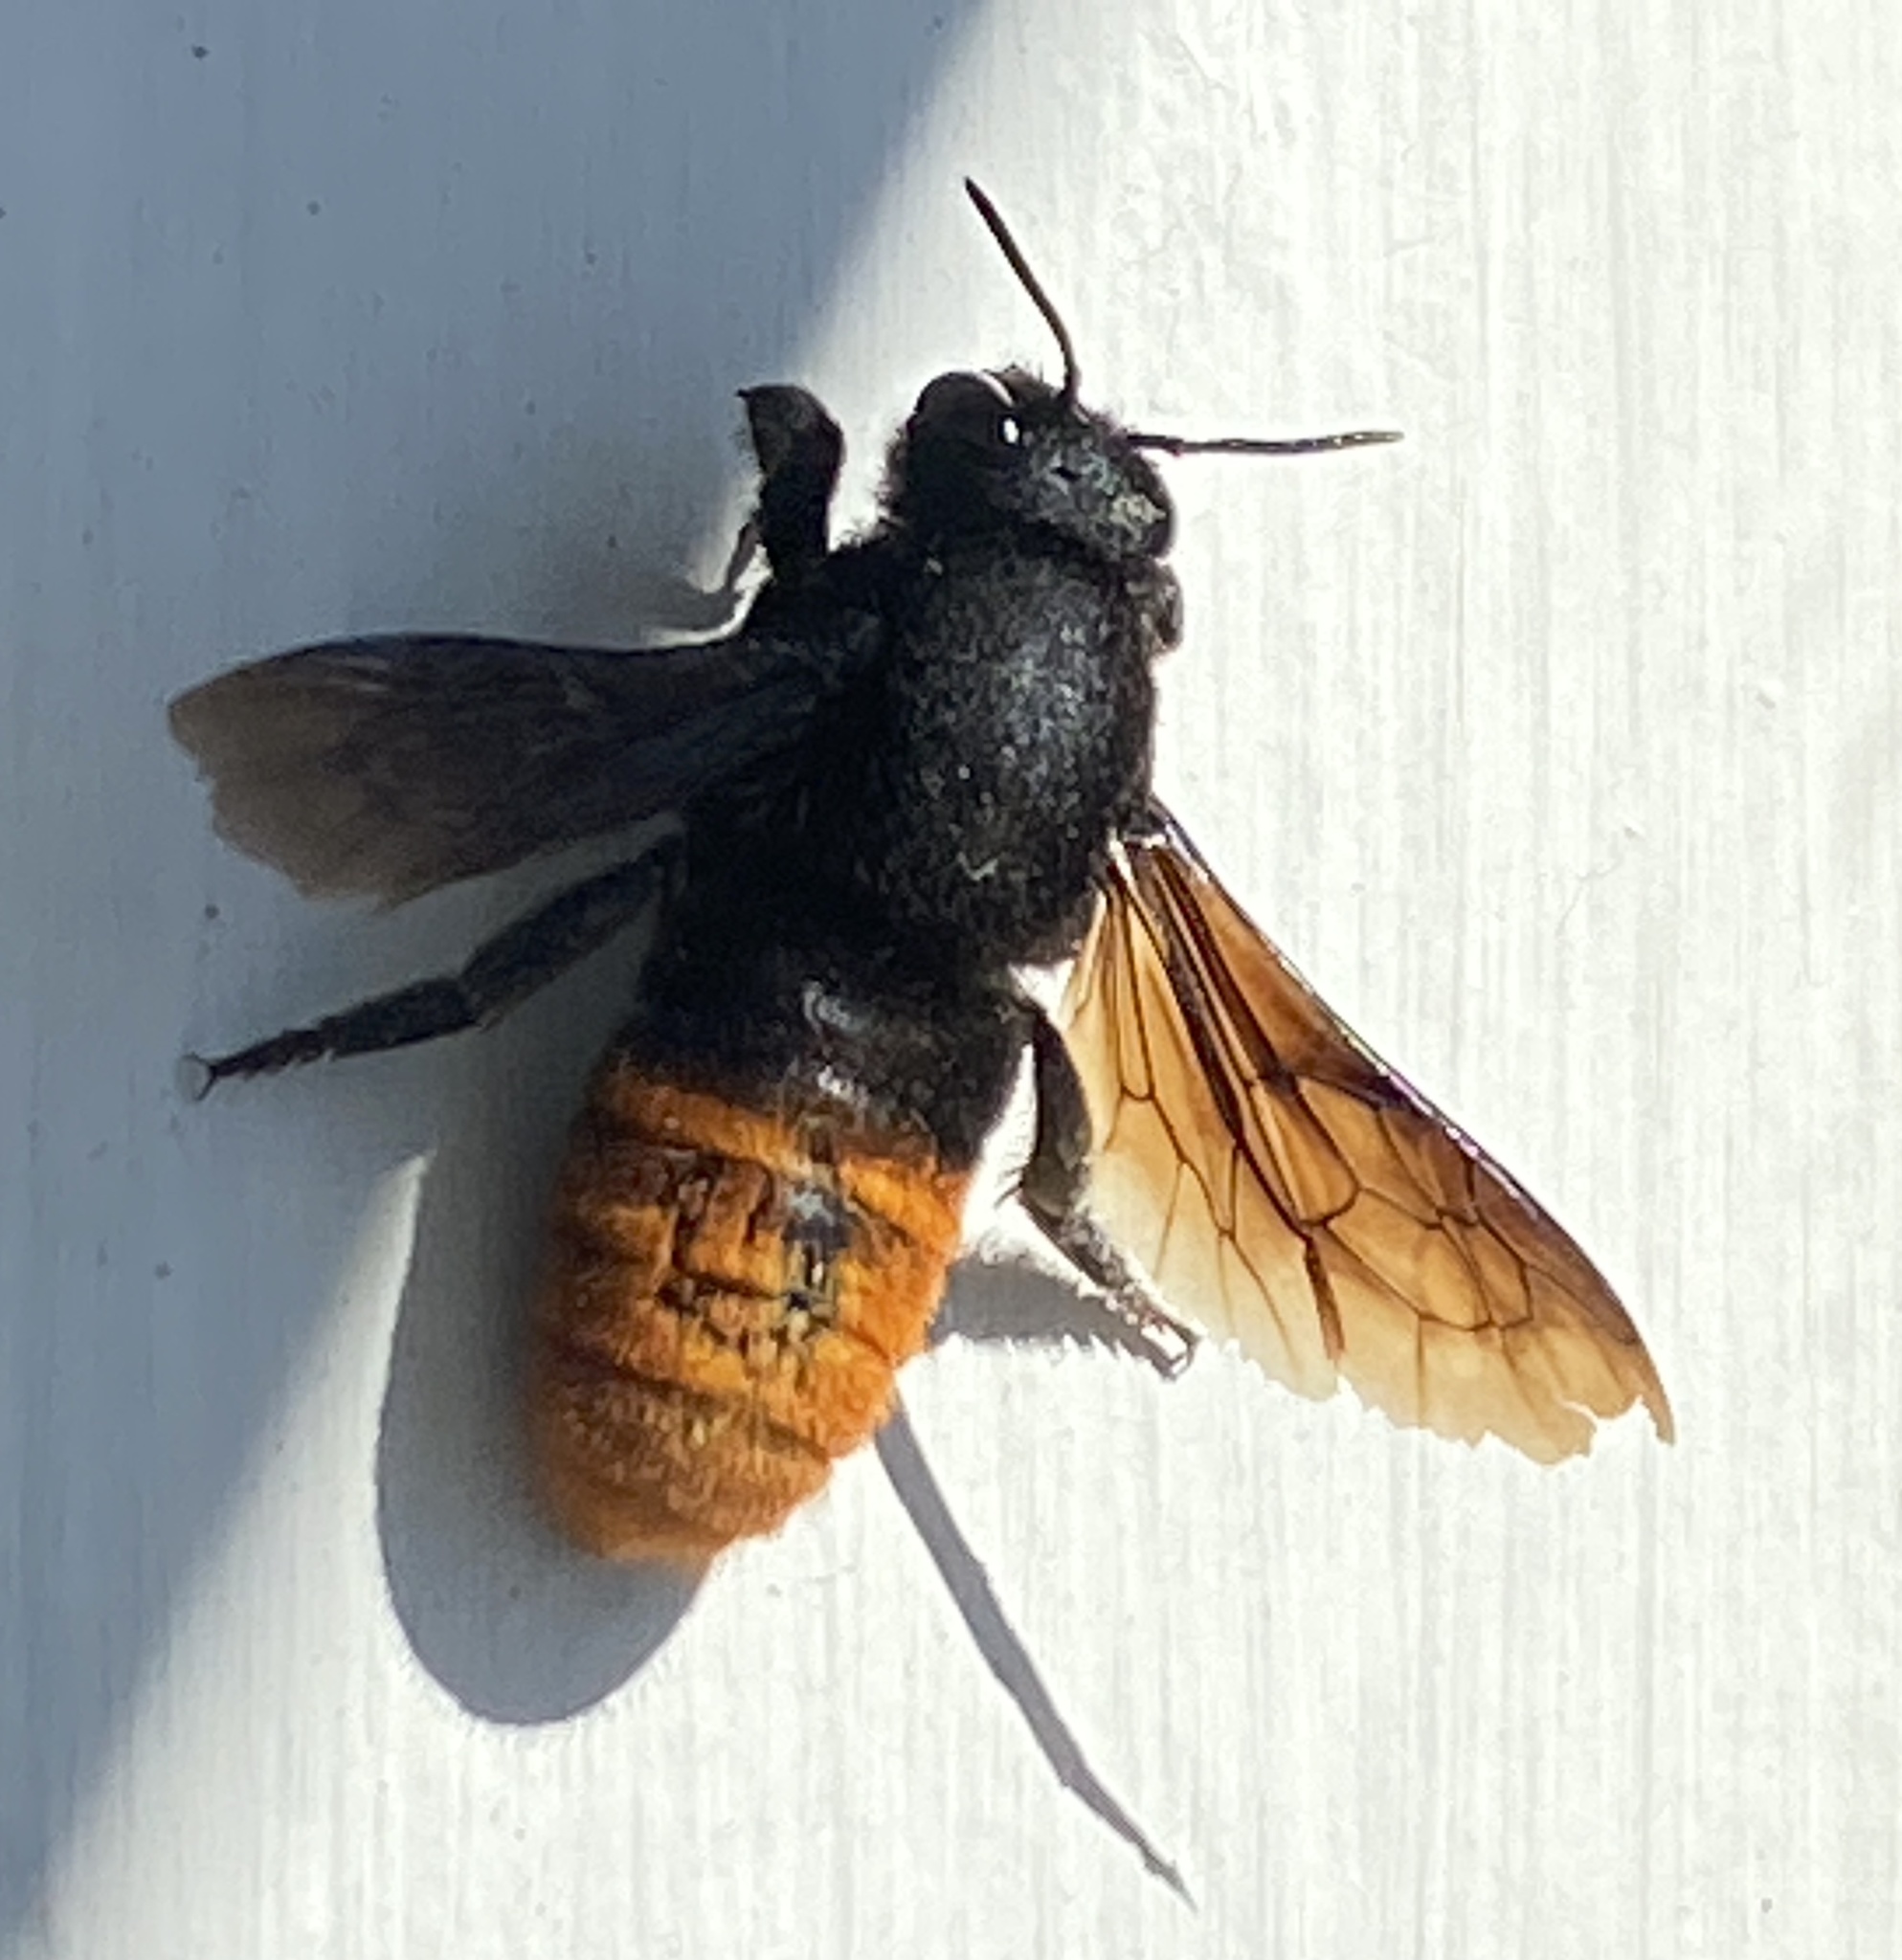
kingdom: Animalia
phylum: Arthropoda
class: Insecta
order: Hymenoptera
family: Megachilidae
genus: Gronoceras
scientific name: Gronoceras cinctum
